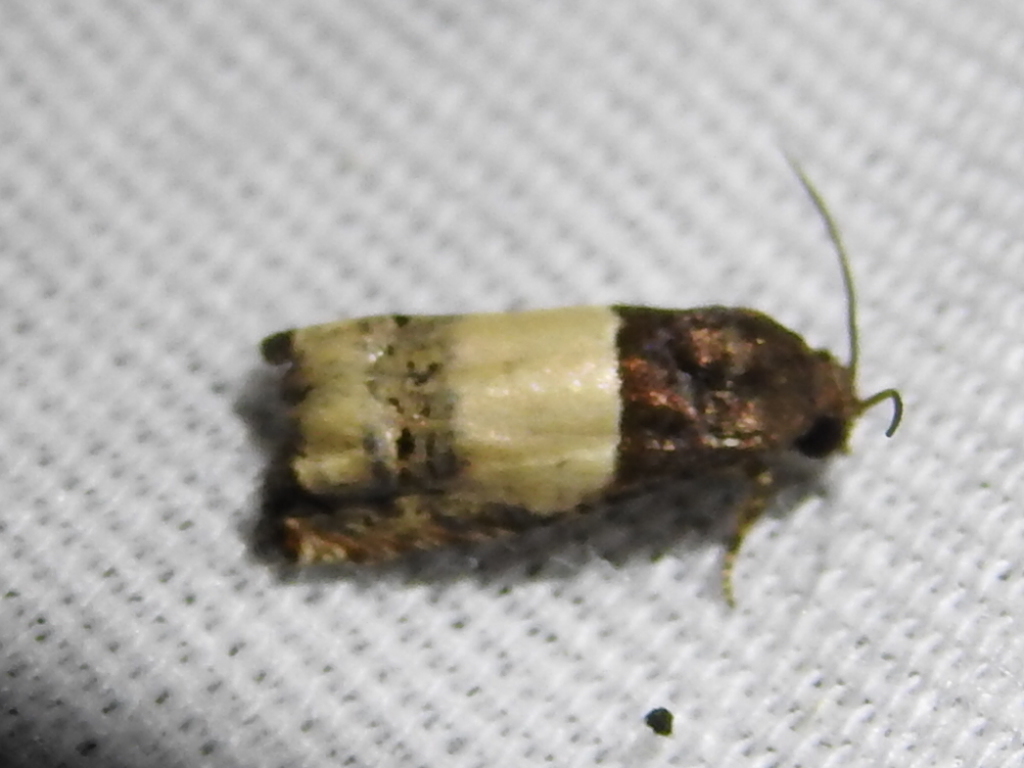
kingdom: Animalia
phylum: Arthropoda
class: Insecta
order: Lepidoptera
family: Tortricidae
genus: Epiblema
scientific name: Epiblema scudderiana
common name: Goldenrod gall moth
